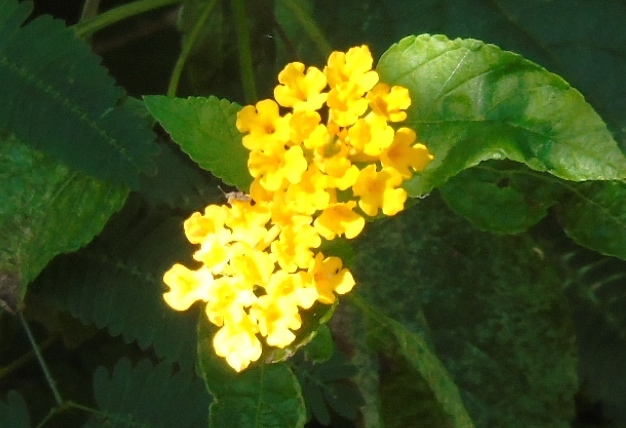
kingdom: Plantae
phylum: Tracheophyta
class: Magnoliopsida
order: Lamiales
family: Verbenaceae
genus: Lantana
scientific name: Lantana polyacantha
